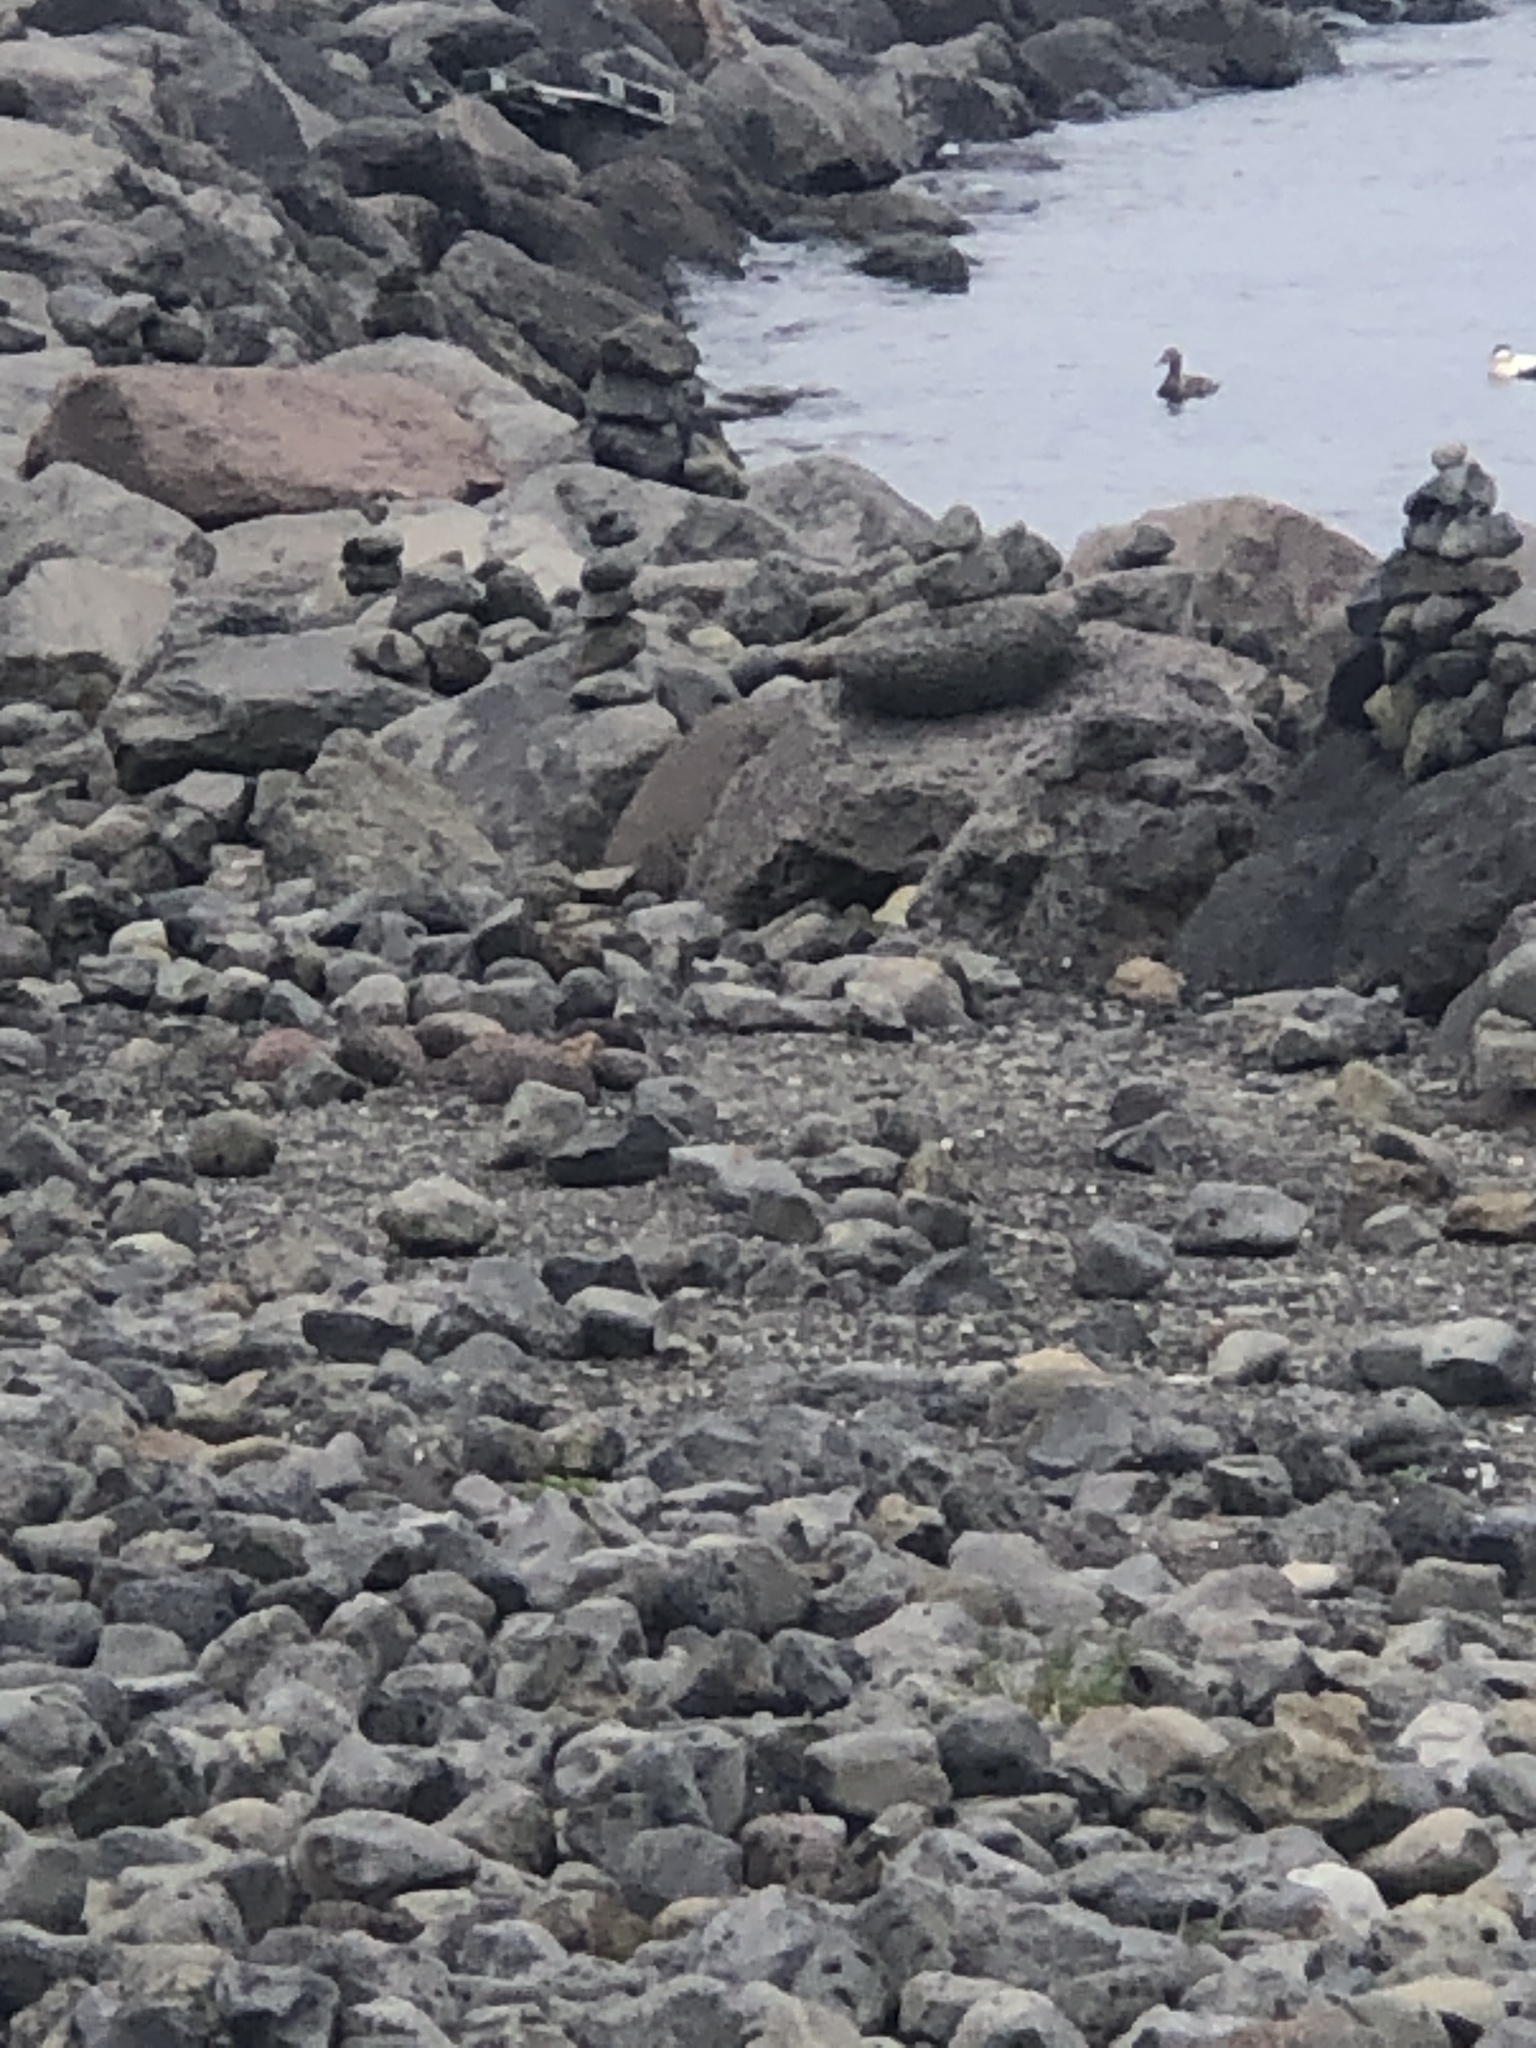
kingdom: Animalia
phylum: Chordata
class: Aves
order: Anseriformes
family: Anatidae
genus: Somateria
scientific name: Somateria mollissima
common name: Common eider
